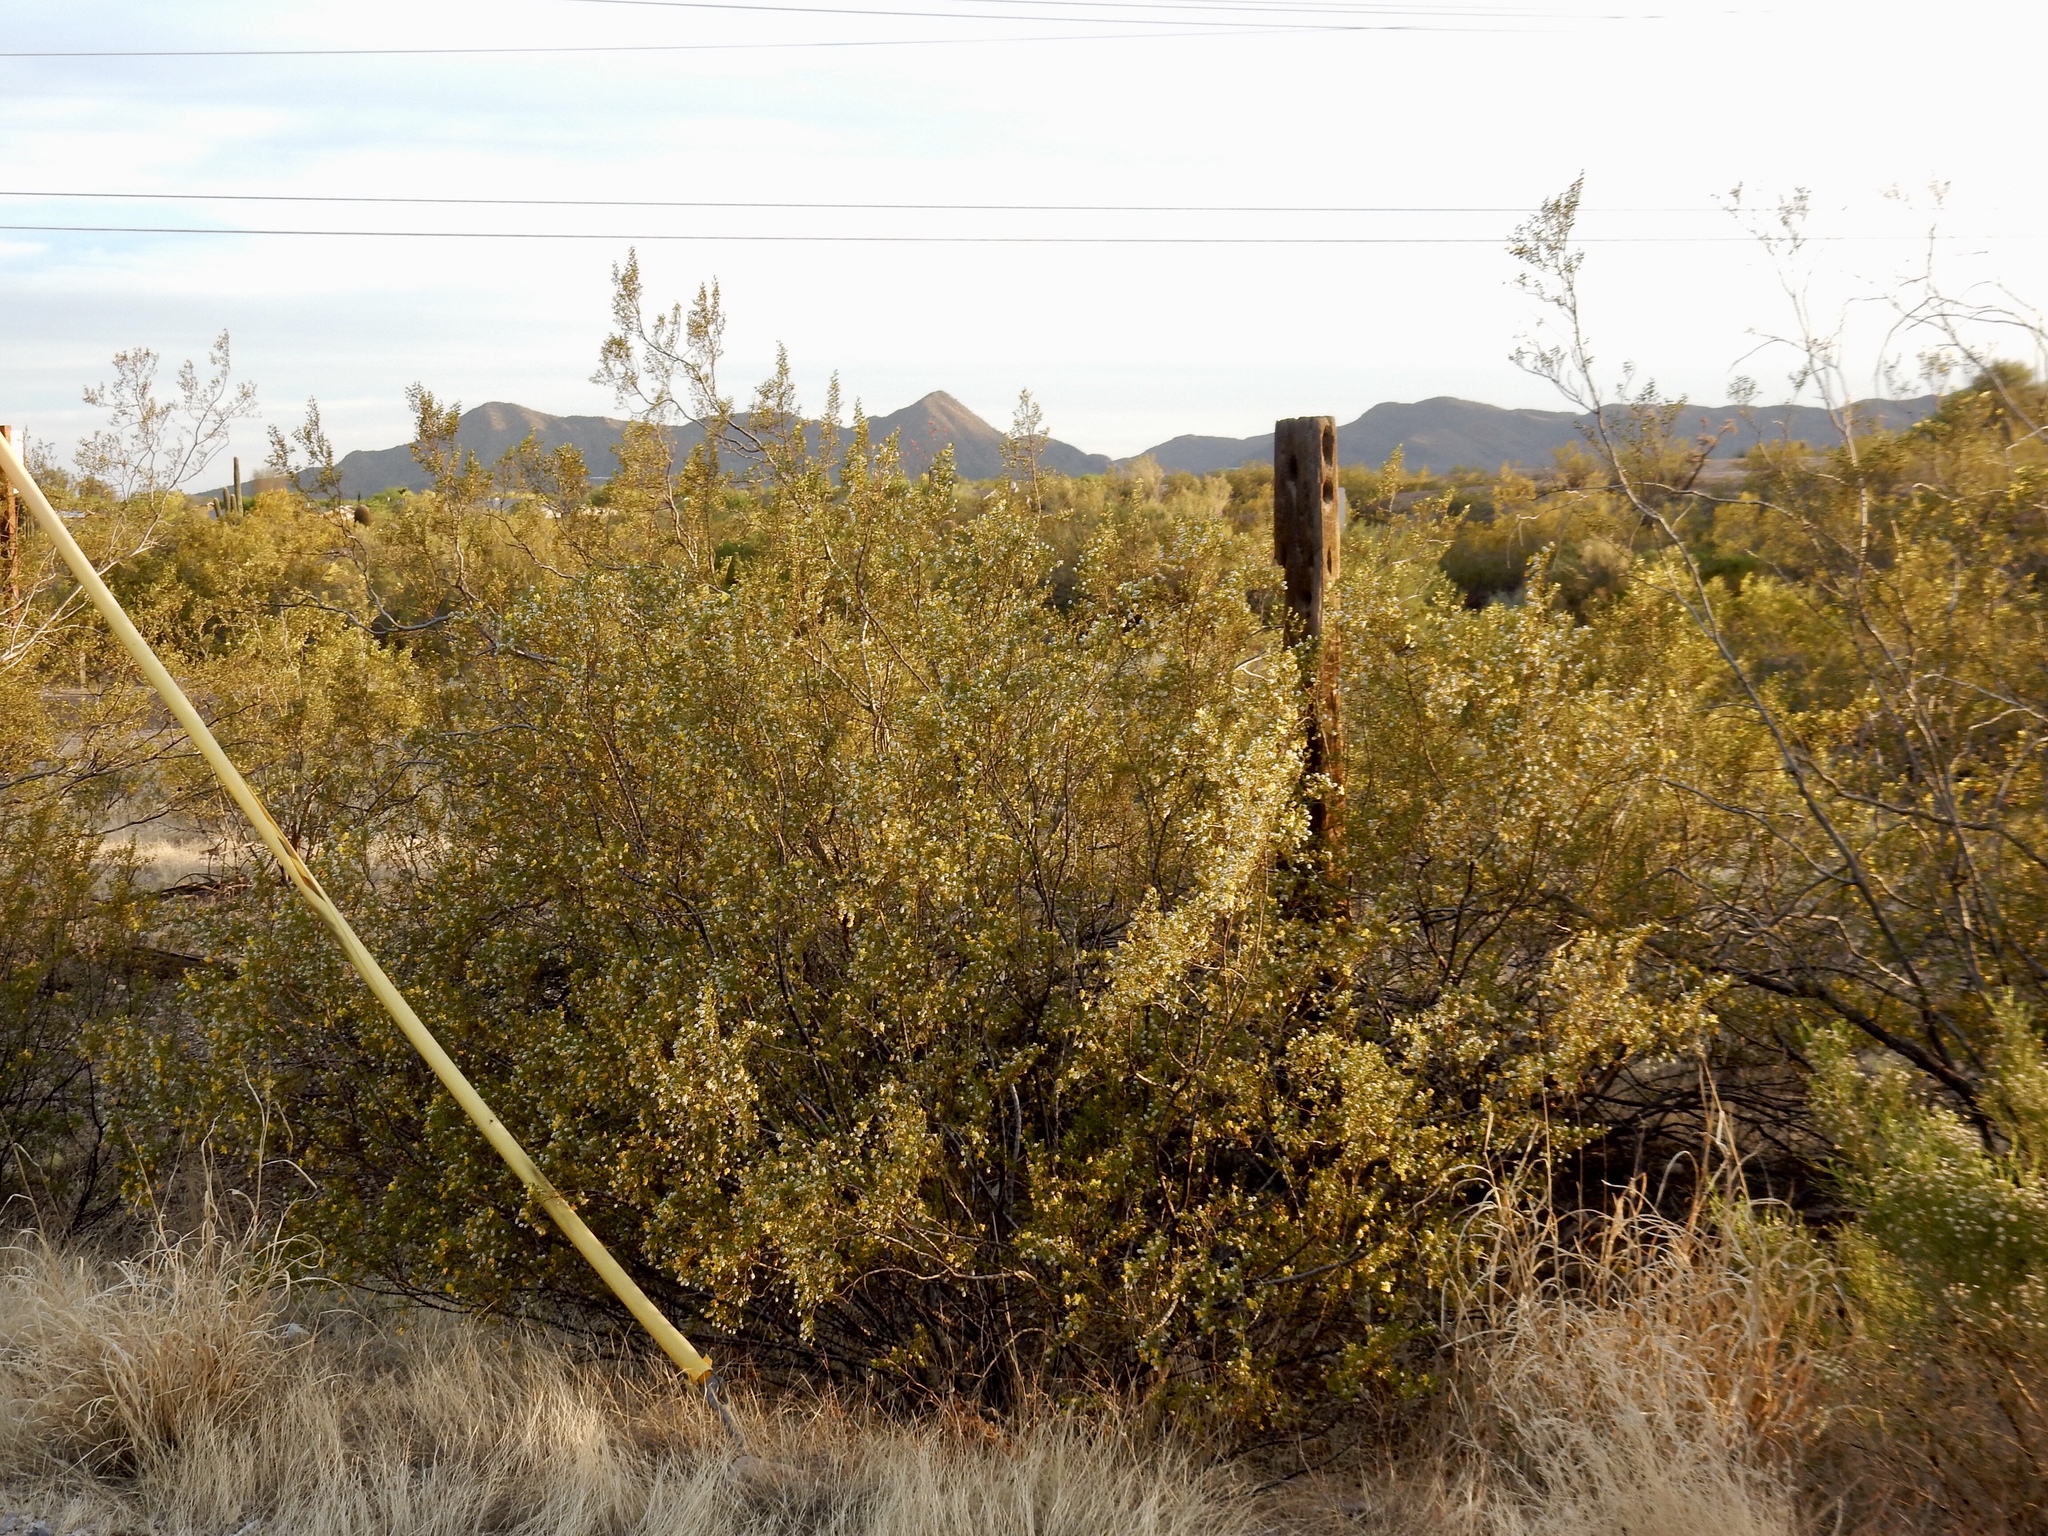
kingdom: Plantae
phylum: Tracheophyta
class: Magnoliopsida
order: Zygophyllales
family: Zygophyllaceae
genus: Larrea
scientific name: Larrea tridentata
